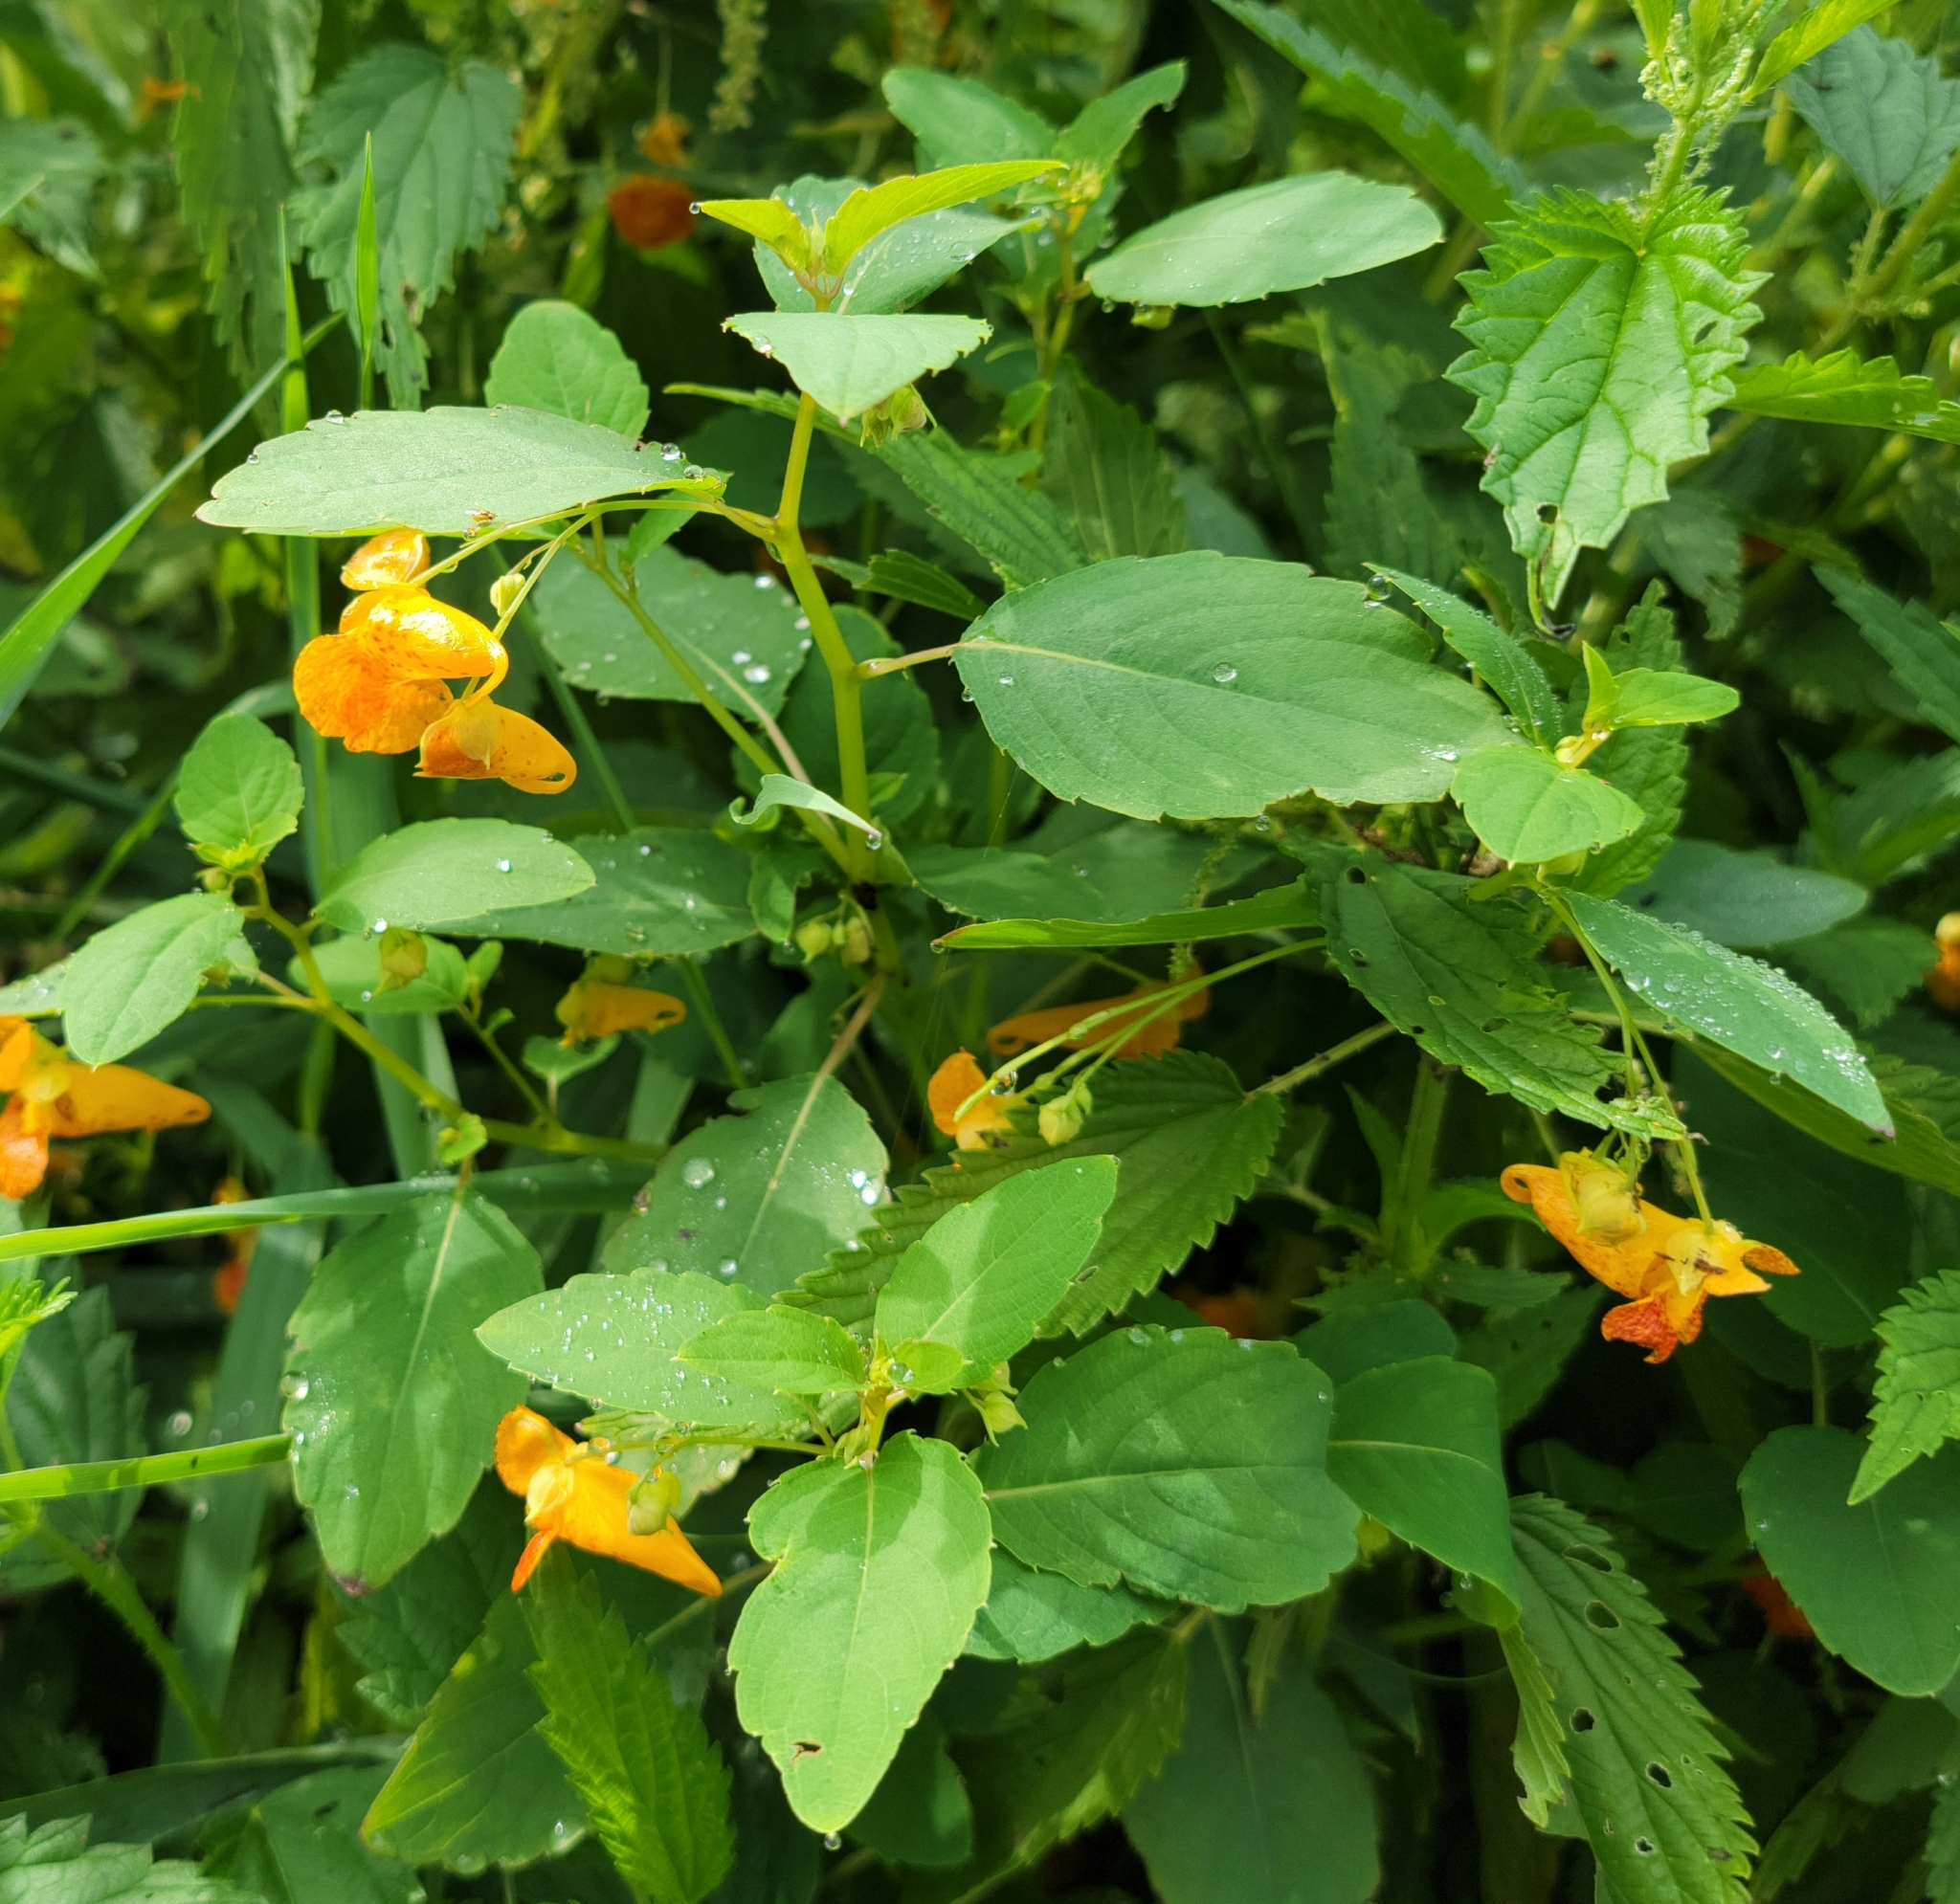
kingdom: Plantae
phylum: Tracheophyta
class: Magnoliopsida
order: Ericales
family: Balsaminaceae
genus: Impatiens
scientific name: Impatiens capensis
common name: Orange balsam
